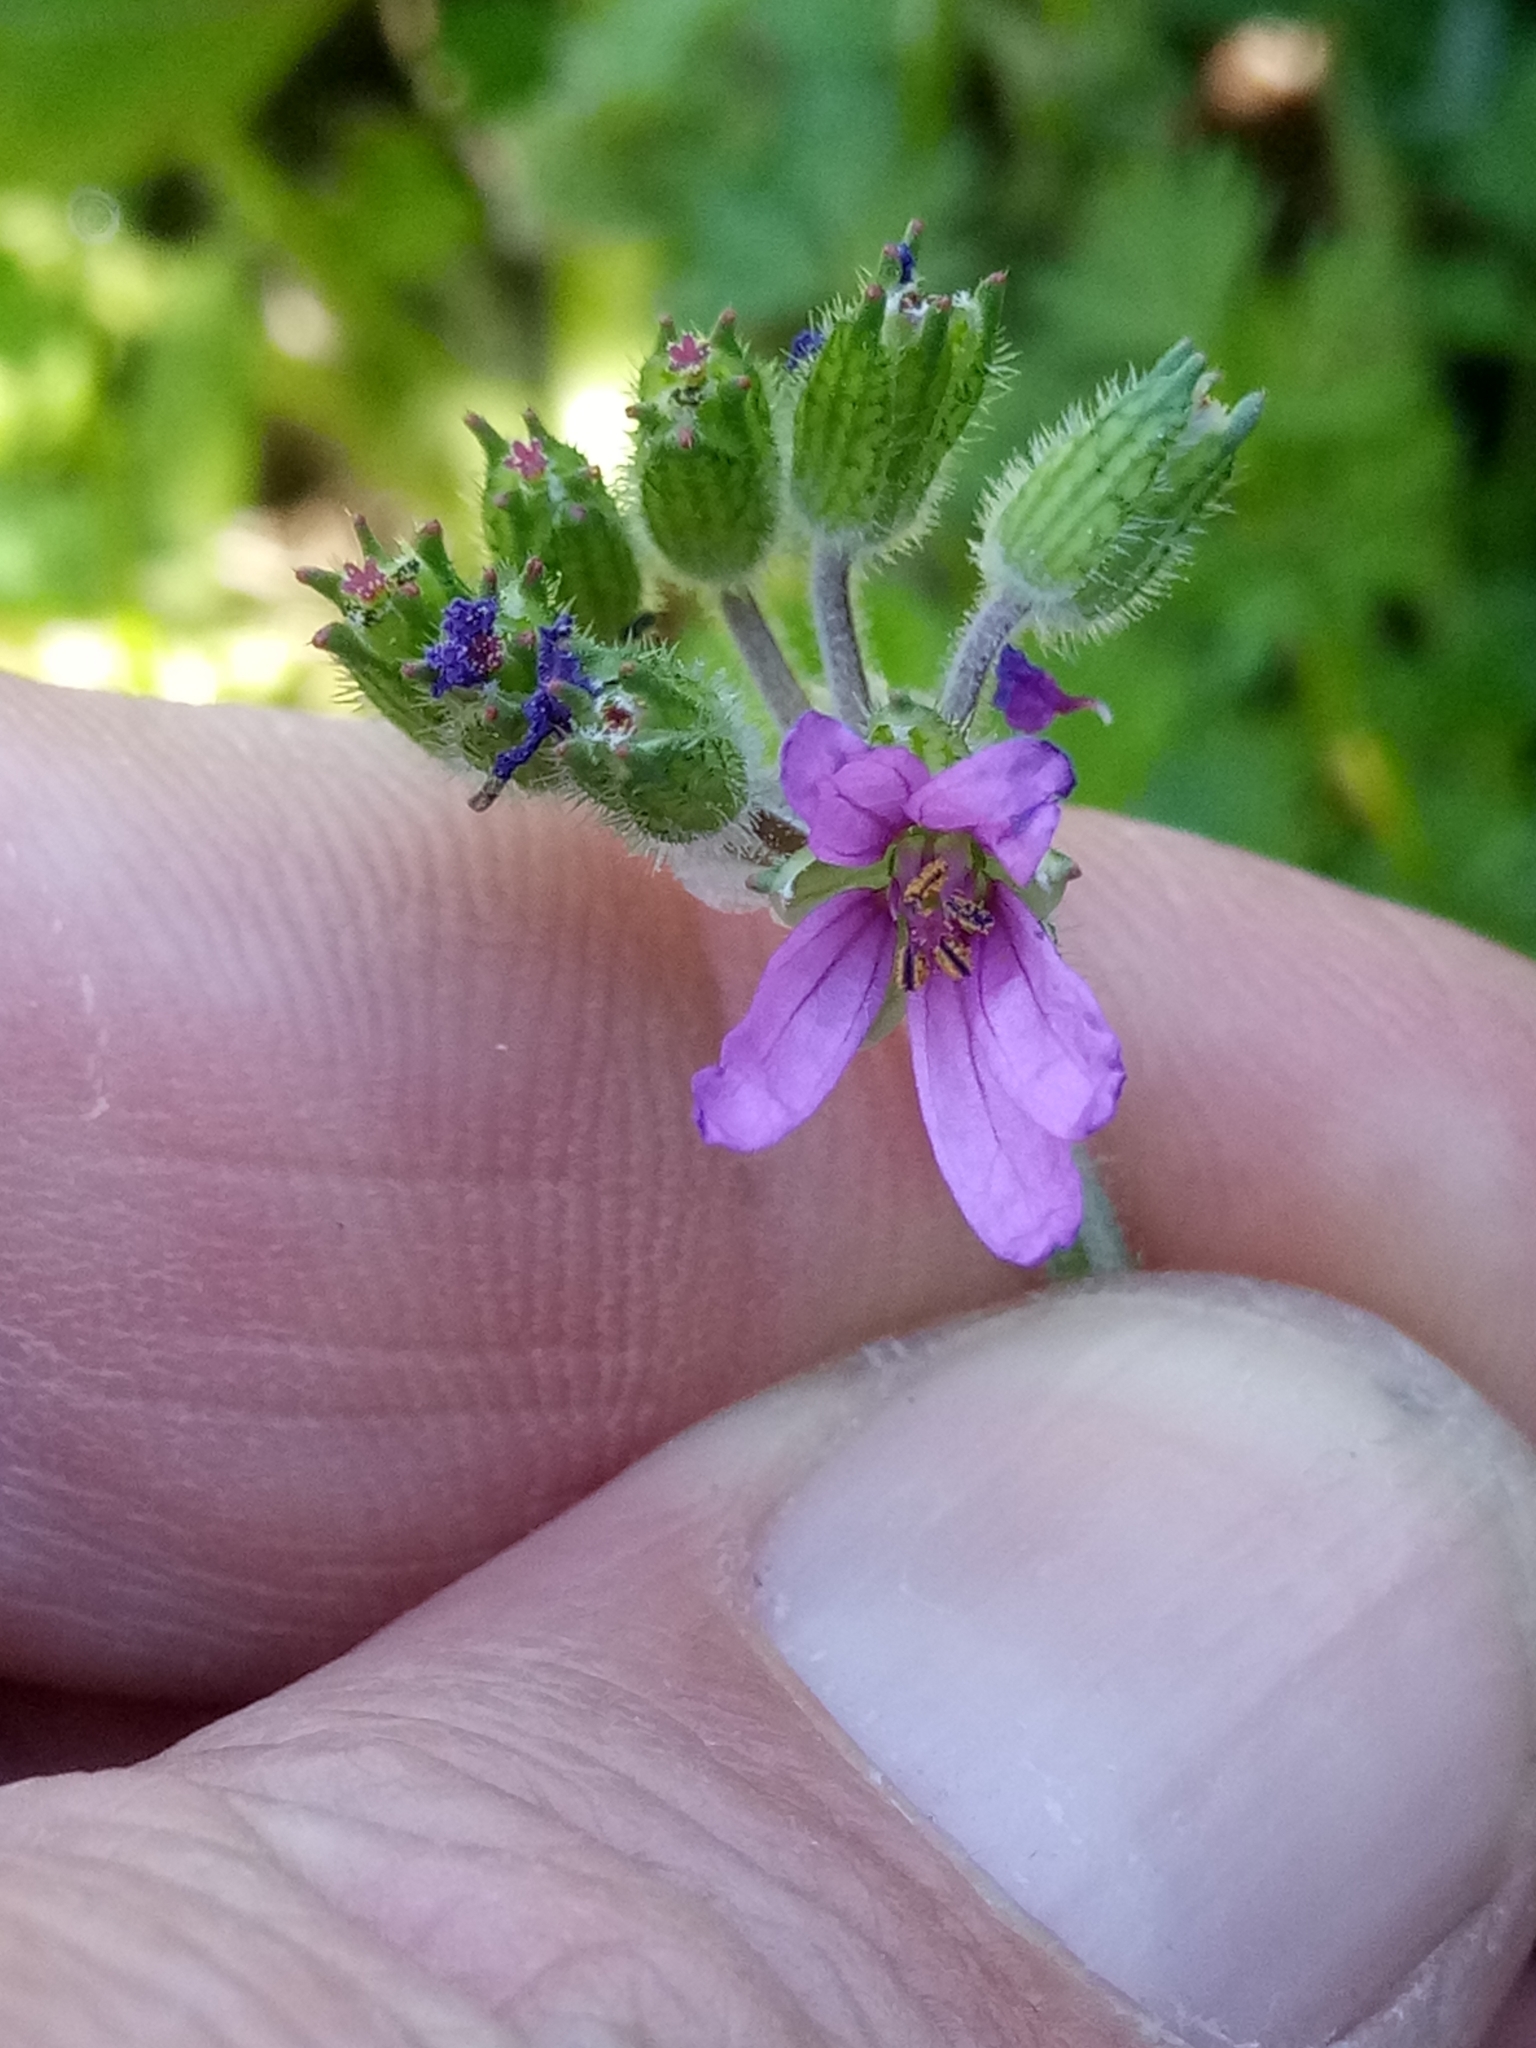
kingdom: Plantae
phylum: Tracheophyta
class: Magnoliopsida
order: Geraniales
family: Geraniaceae
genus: Erodium
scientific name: Erodium moschatum
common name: Musk stork's-bill
